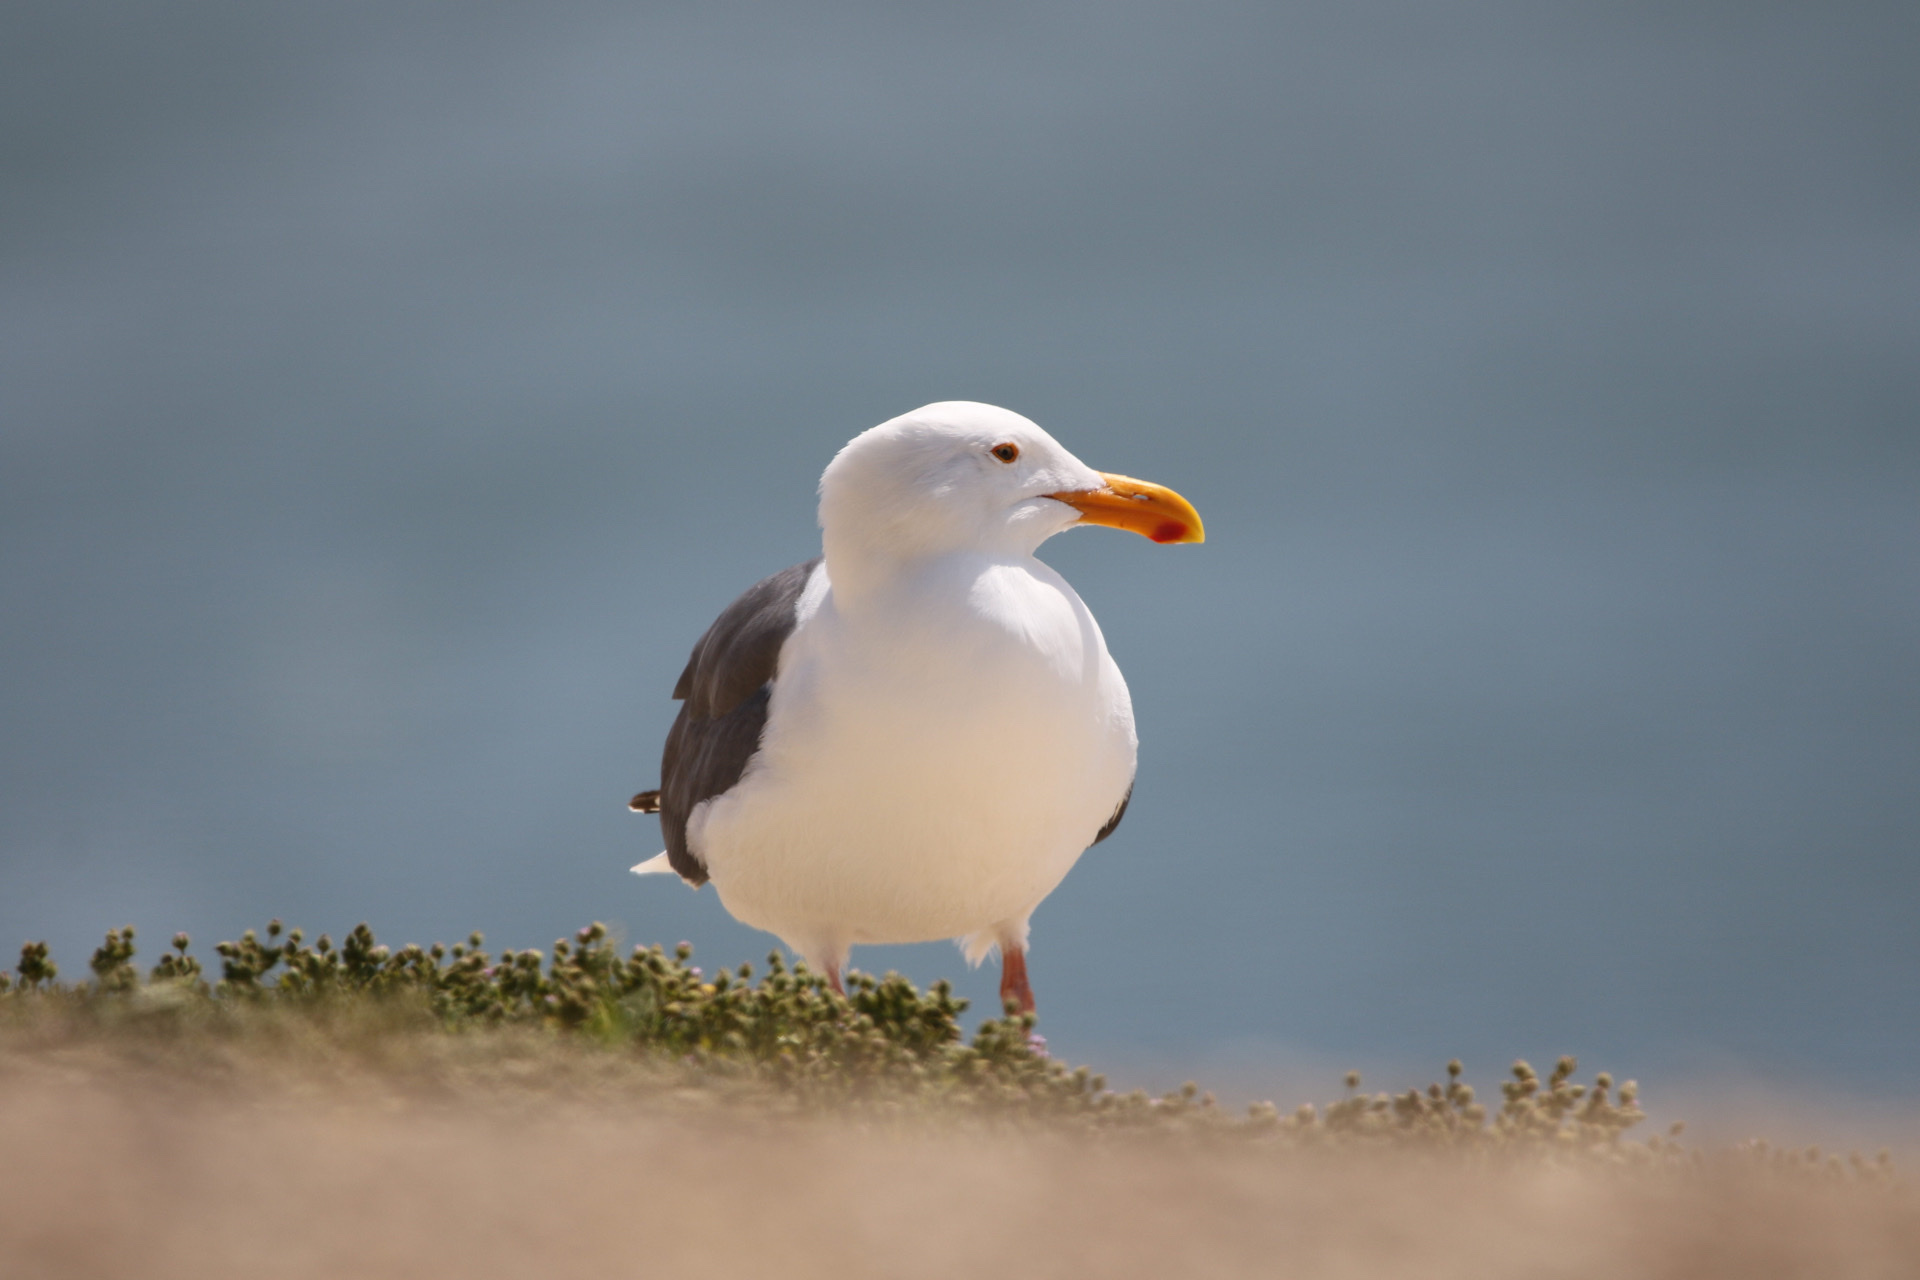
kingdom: Animalia
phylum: Chordata
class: Aves
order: Charadriiformes
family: Laridae
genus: Larus
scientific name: Larus occidentalis
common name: Western gull
